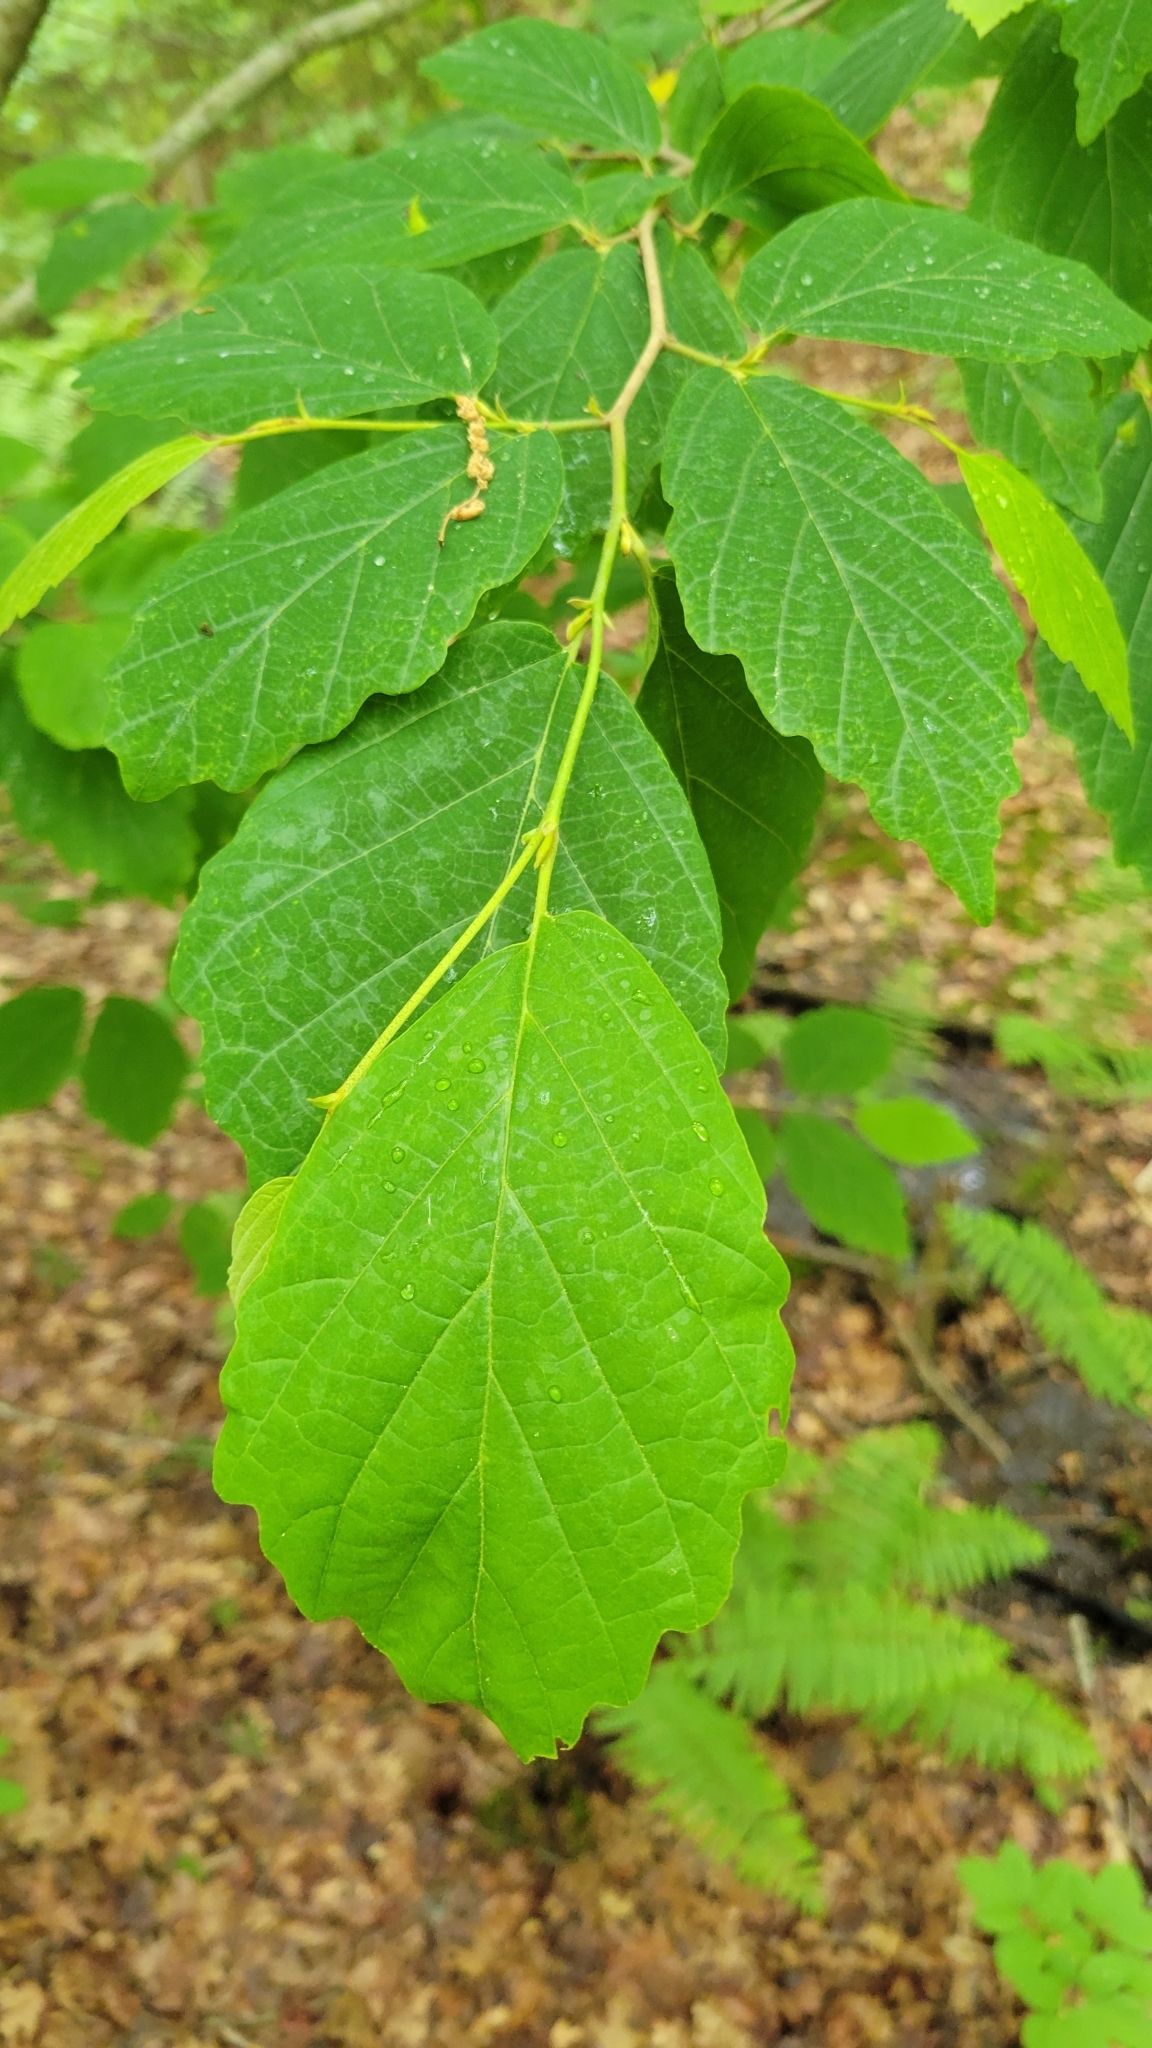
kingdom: Plantae
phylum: Tracheophyta
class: Magnoliopsida
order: Saxifragales
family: Hamamelidaceae
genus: Hamamelis
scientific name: Hamamelis virginiana
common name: Witch-hazel
